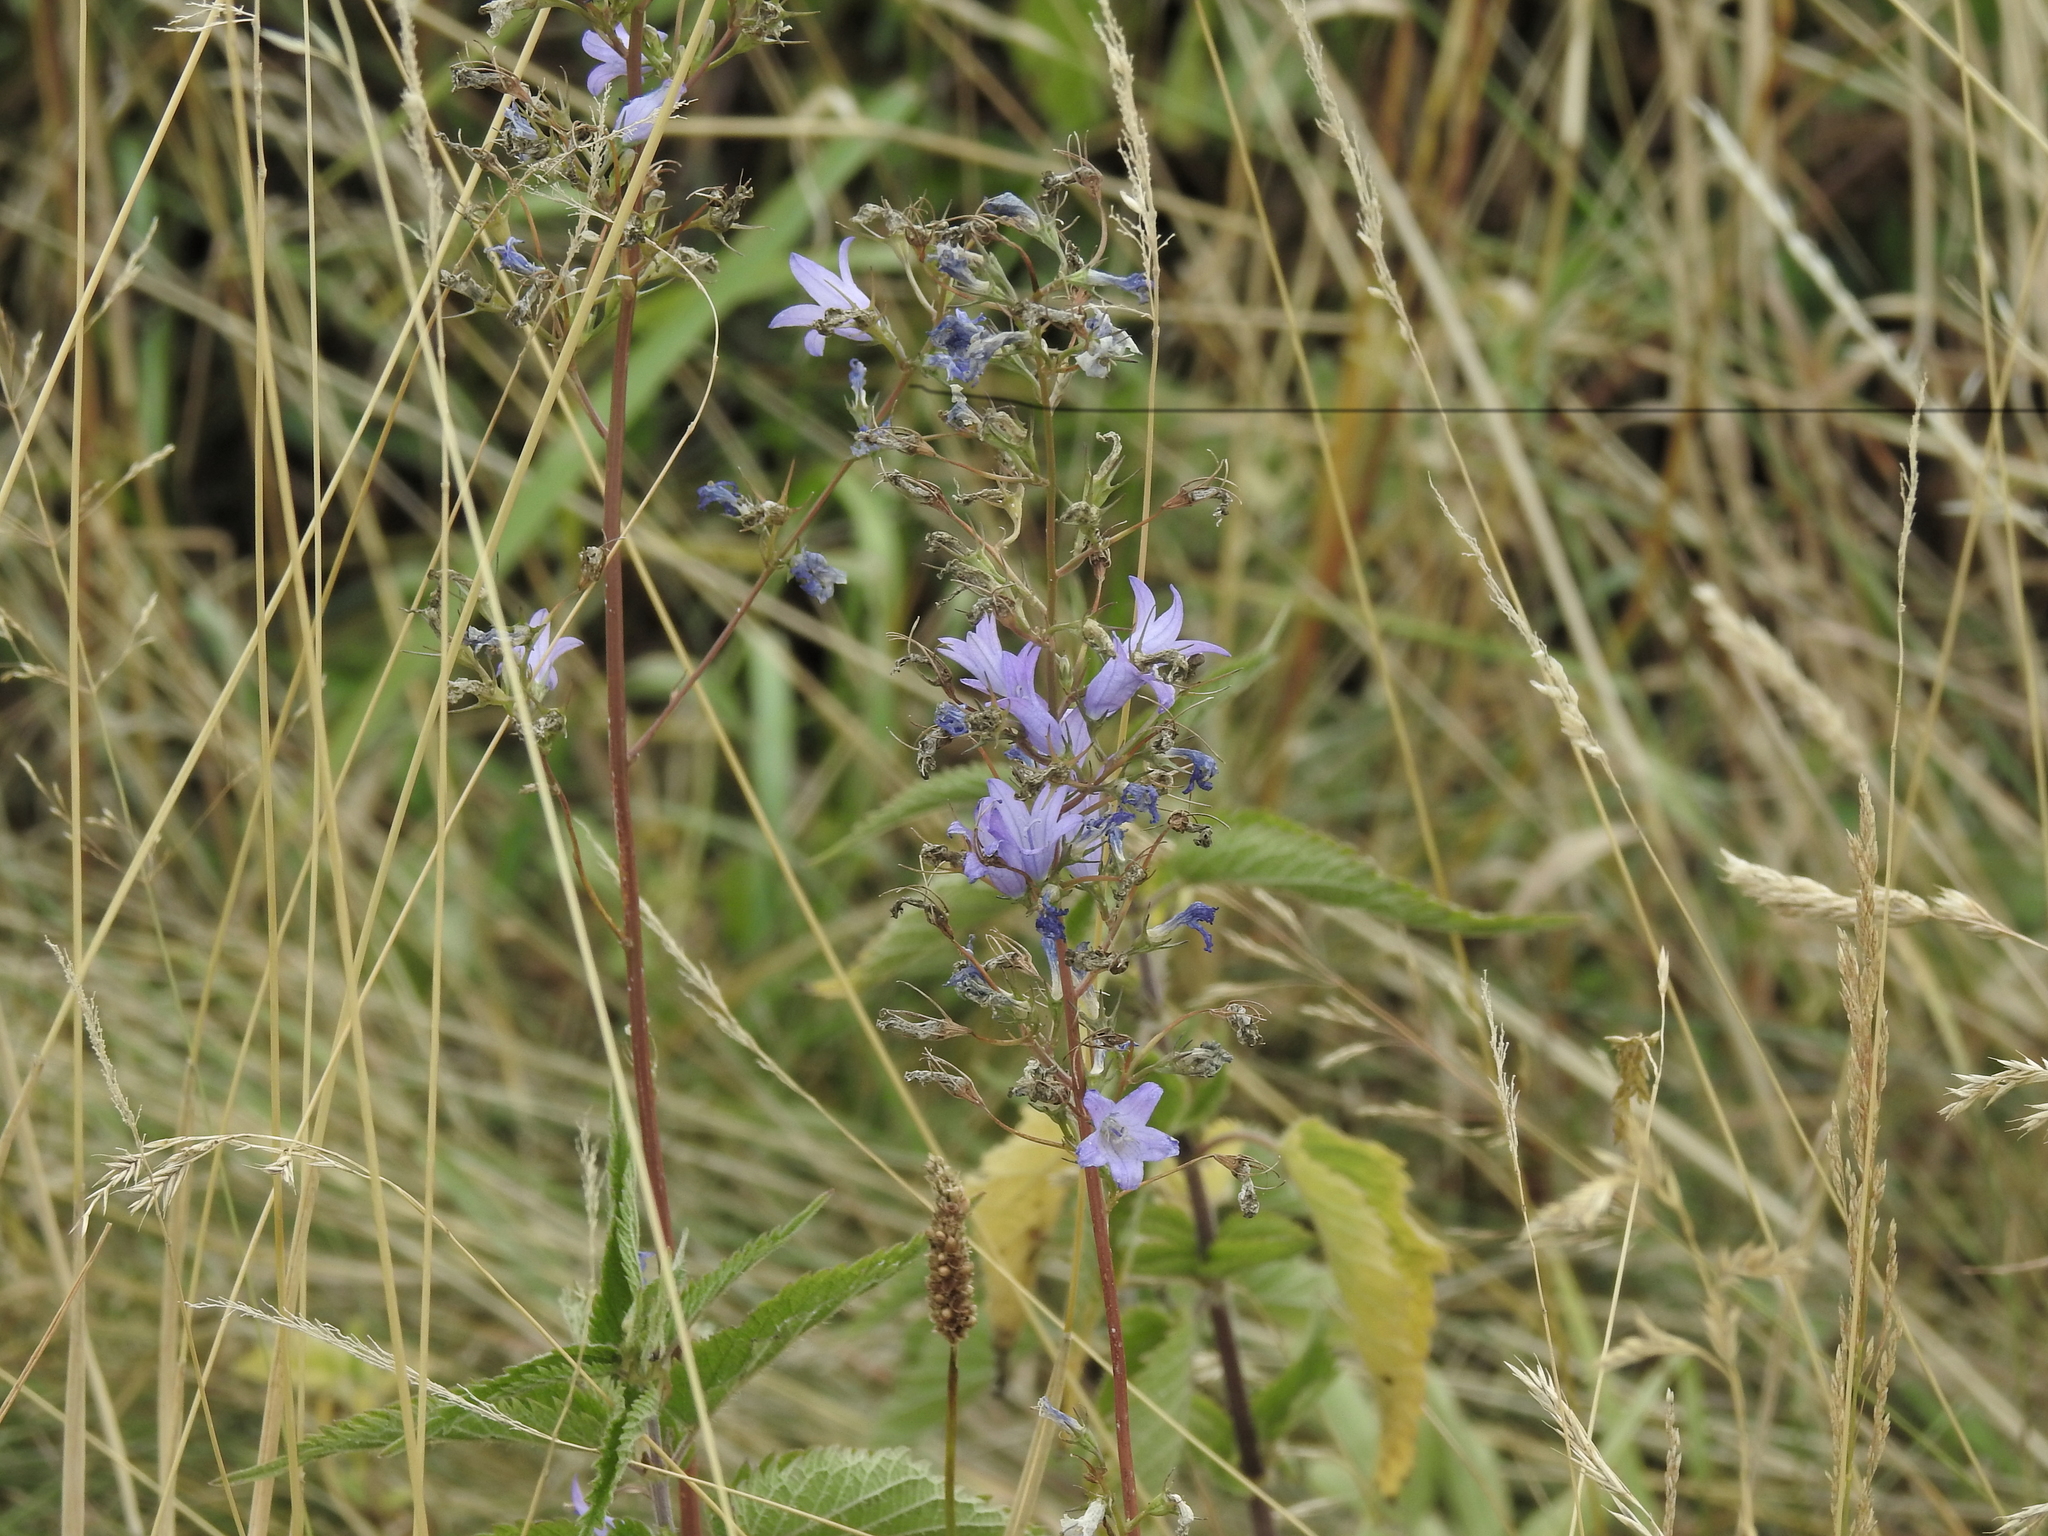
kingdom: Plantae
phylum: Tracheophyta
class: Magnoliopsida
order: Asterales
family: Campanulaceae
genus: Campanula
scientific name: Campanula rapunculus
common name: Rampion bellflower
